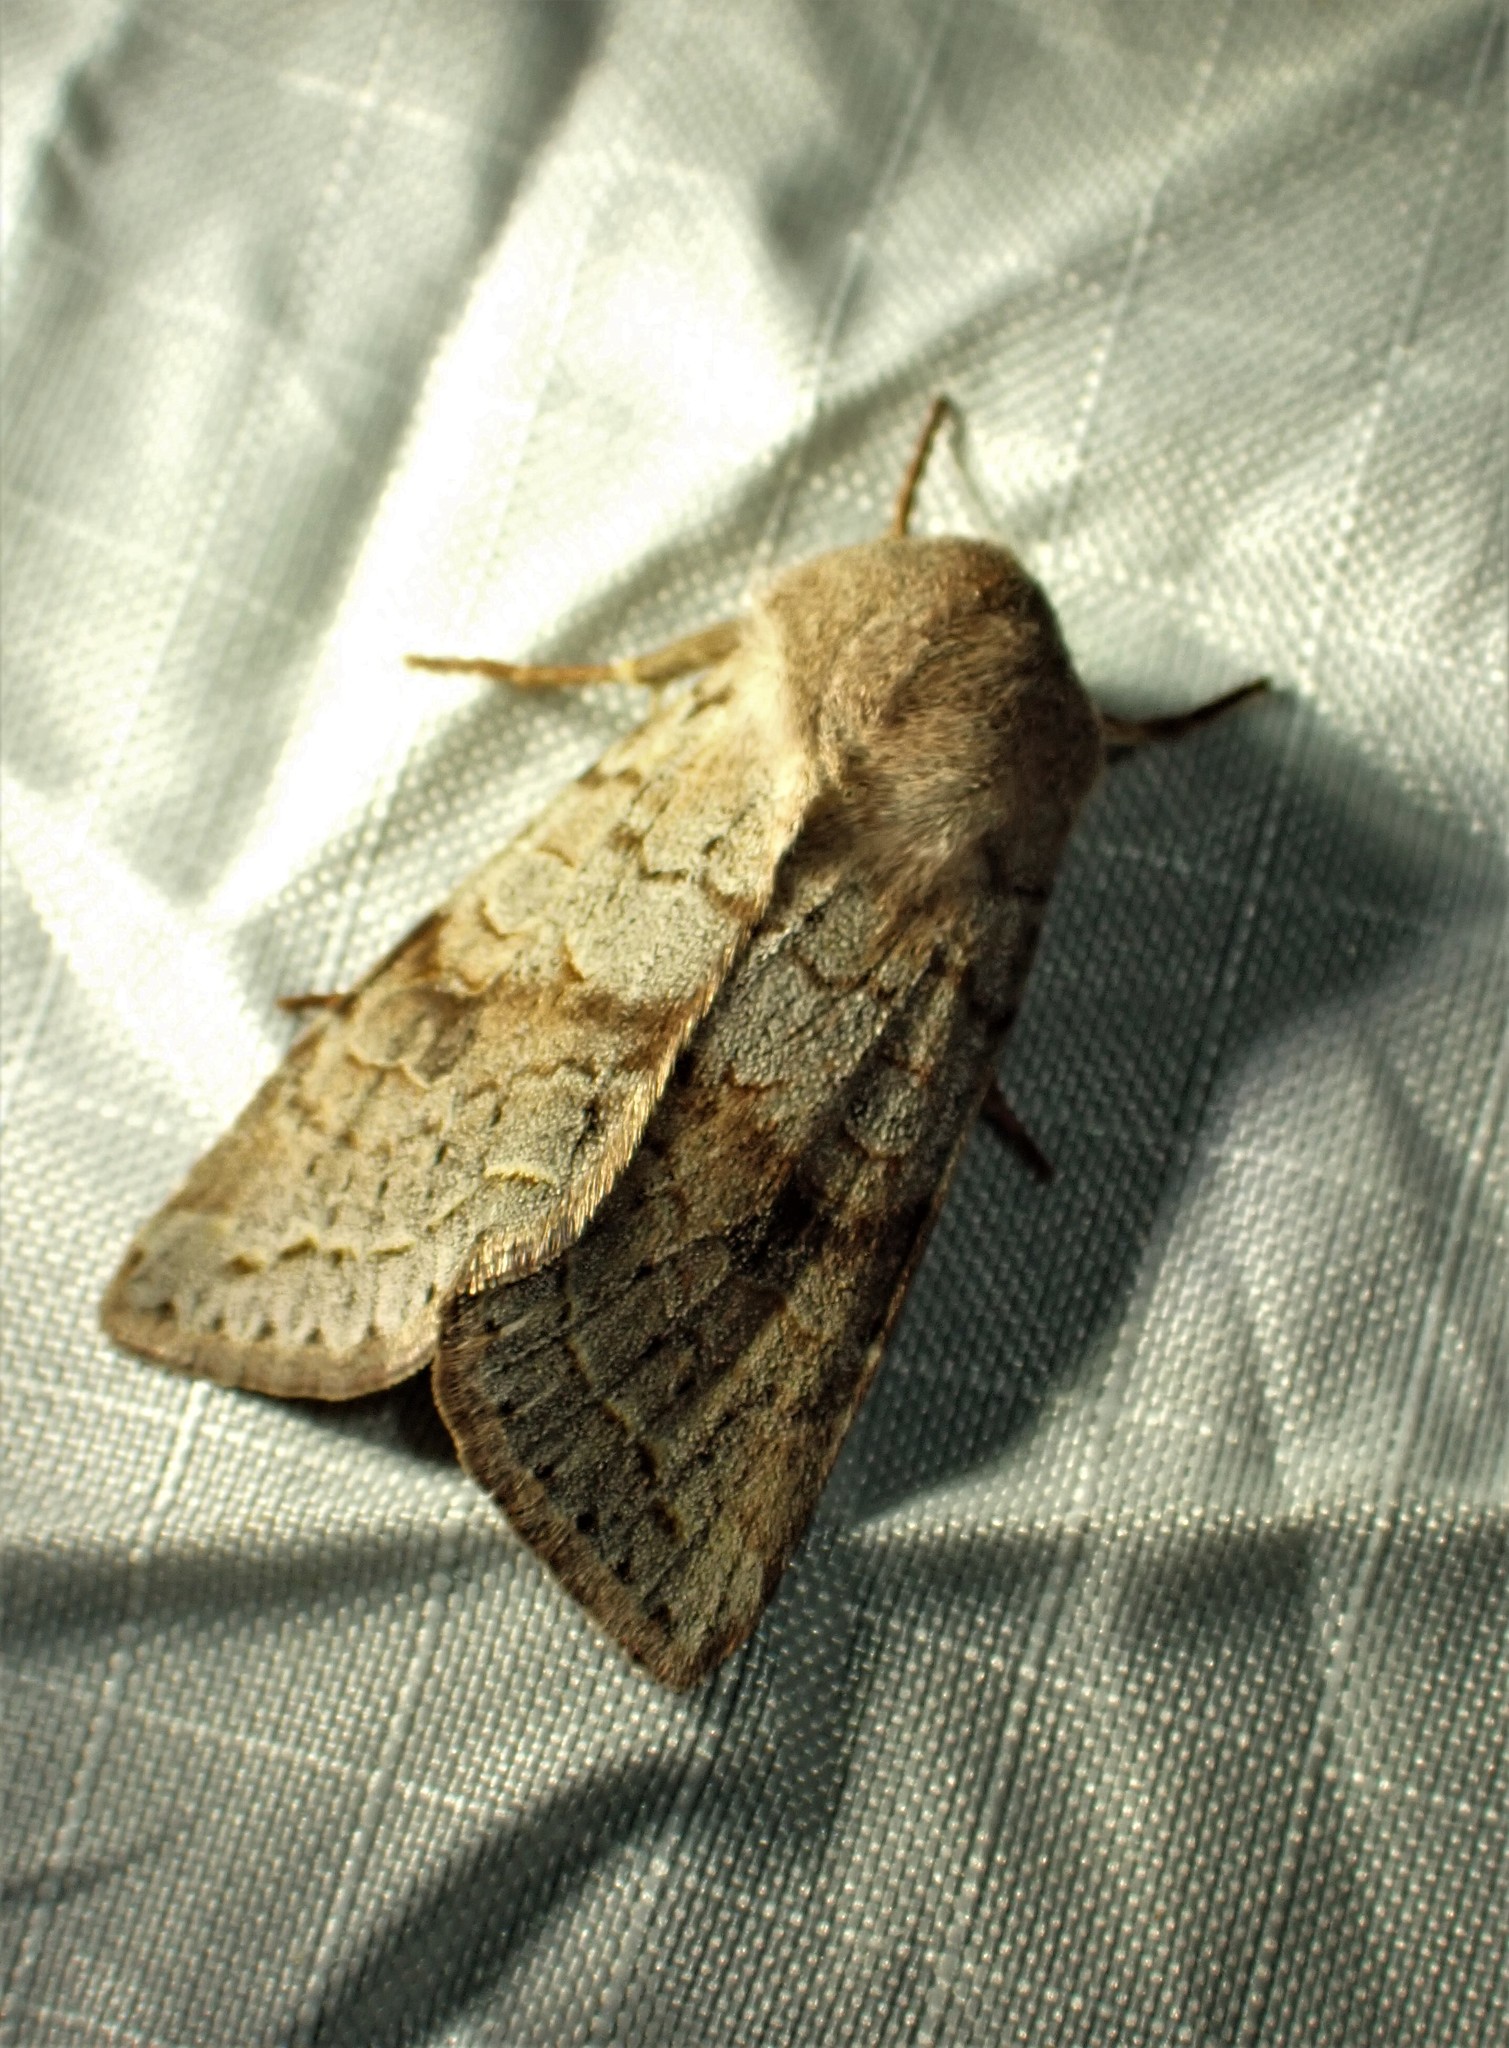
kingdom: Animalia
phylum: Arthropoda
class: Insecta
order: Lepidoptera
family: Noctuidae
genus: Orthosia
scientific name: Orthosia revicta
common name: Rusty whitesided caterpillar
